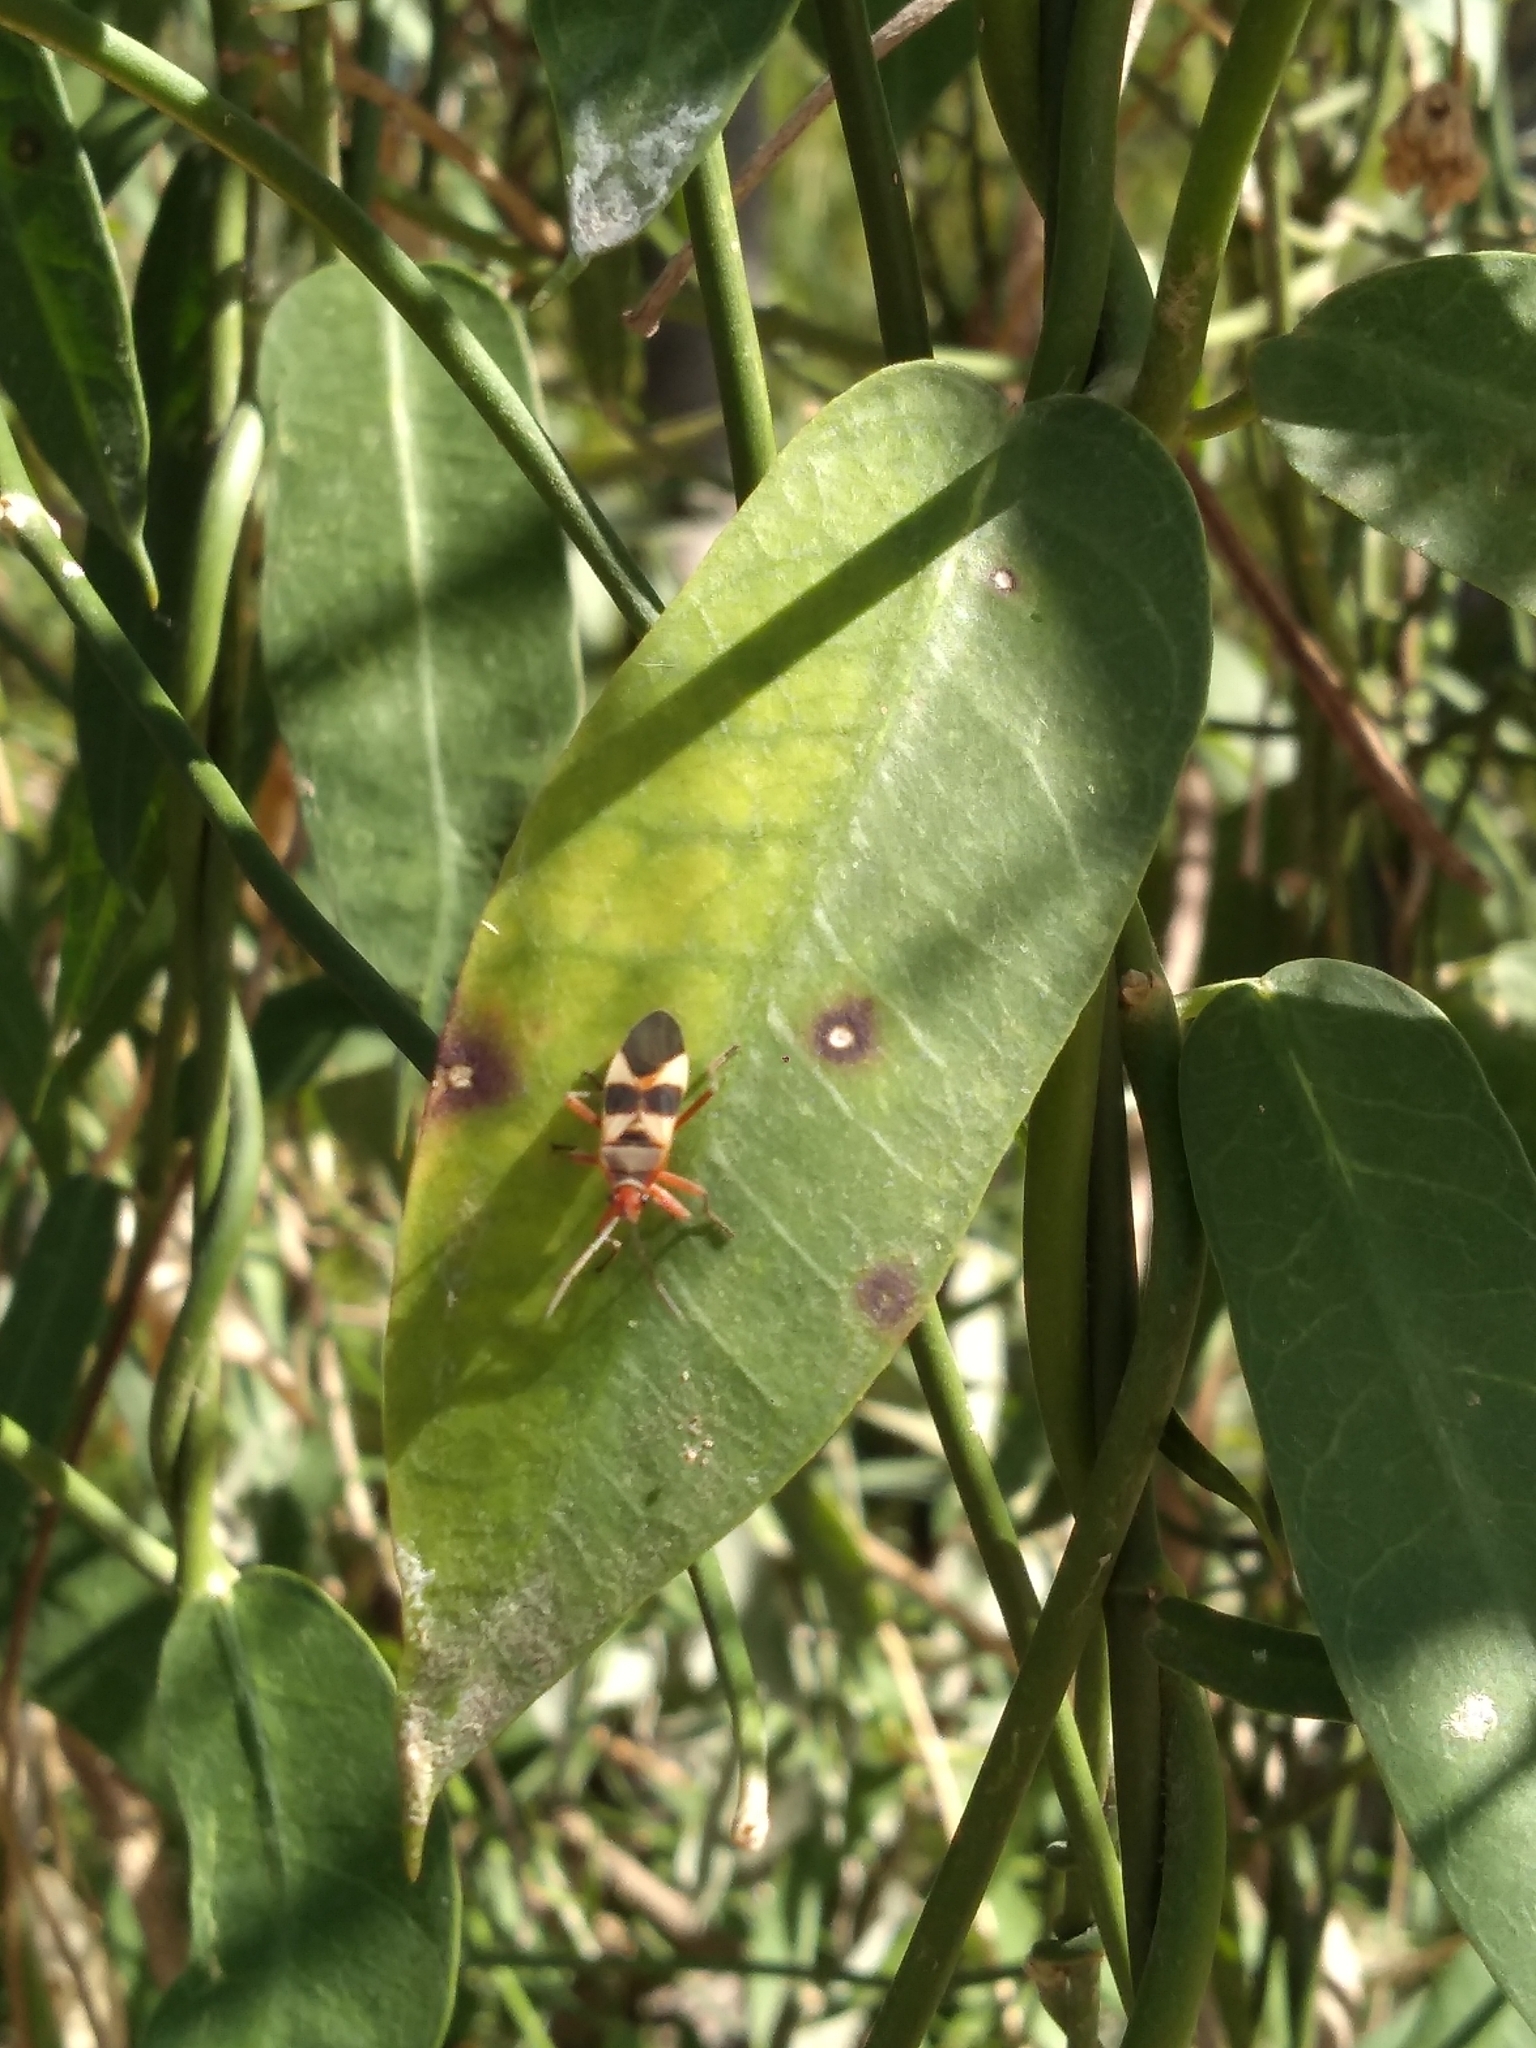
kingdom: Animalia
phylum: Arthropoda
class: Insecta
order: Hemiptera
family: Lygaeidae
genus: Oncopeltus
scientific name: Oncopeltus unifasciatellus
